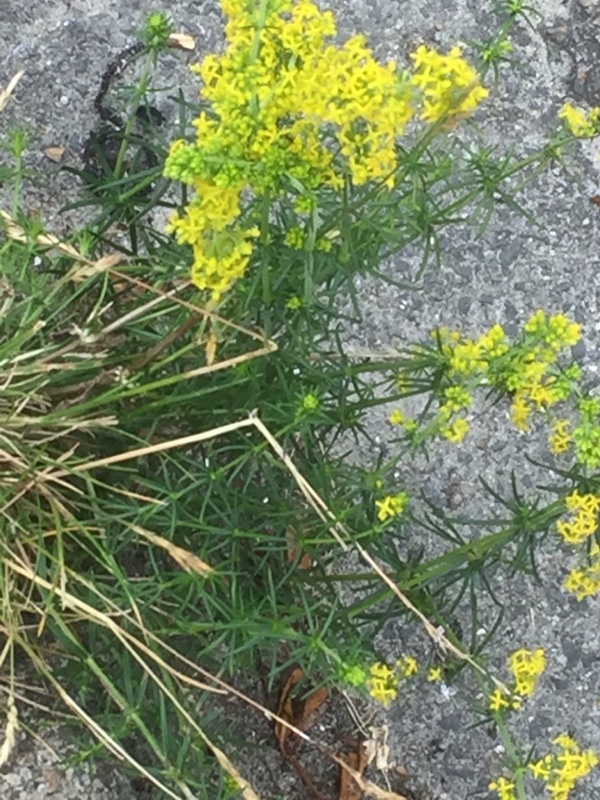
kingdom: Plantae
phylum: Tracheophyta
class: Magnoliopsida
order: Gentianales
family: Rubiaceae
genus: Galium
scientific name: Galium verum
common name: Lady's bedstraw
